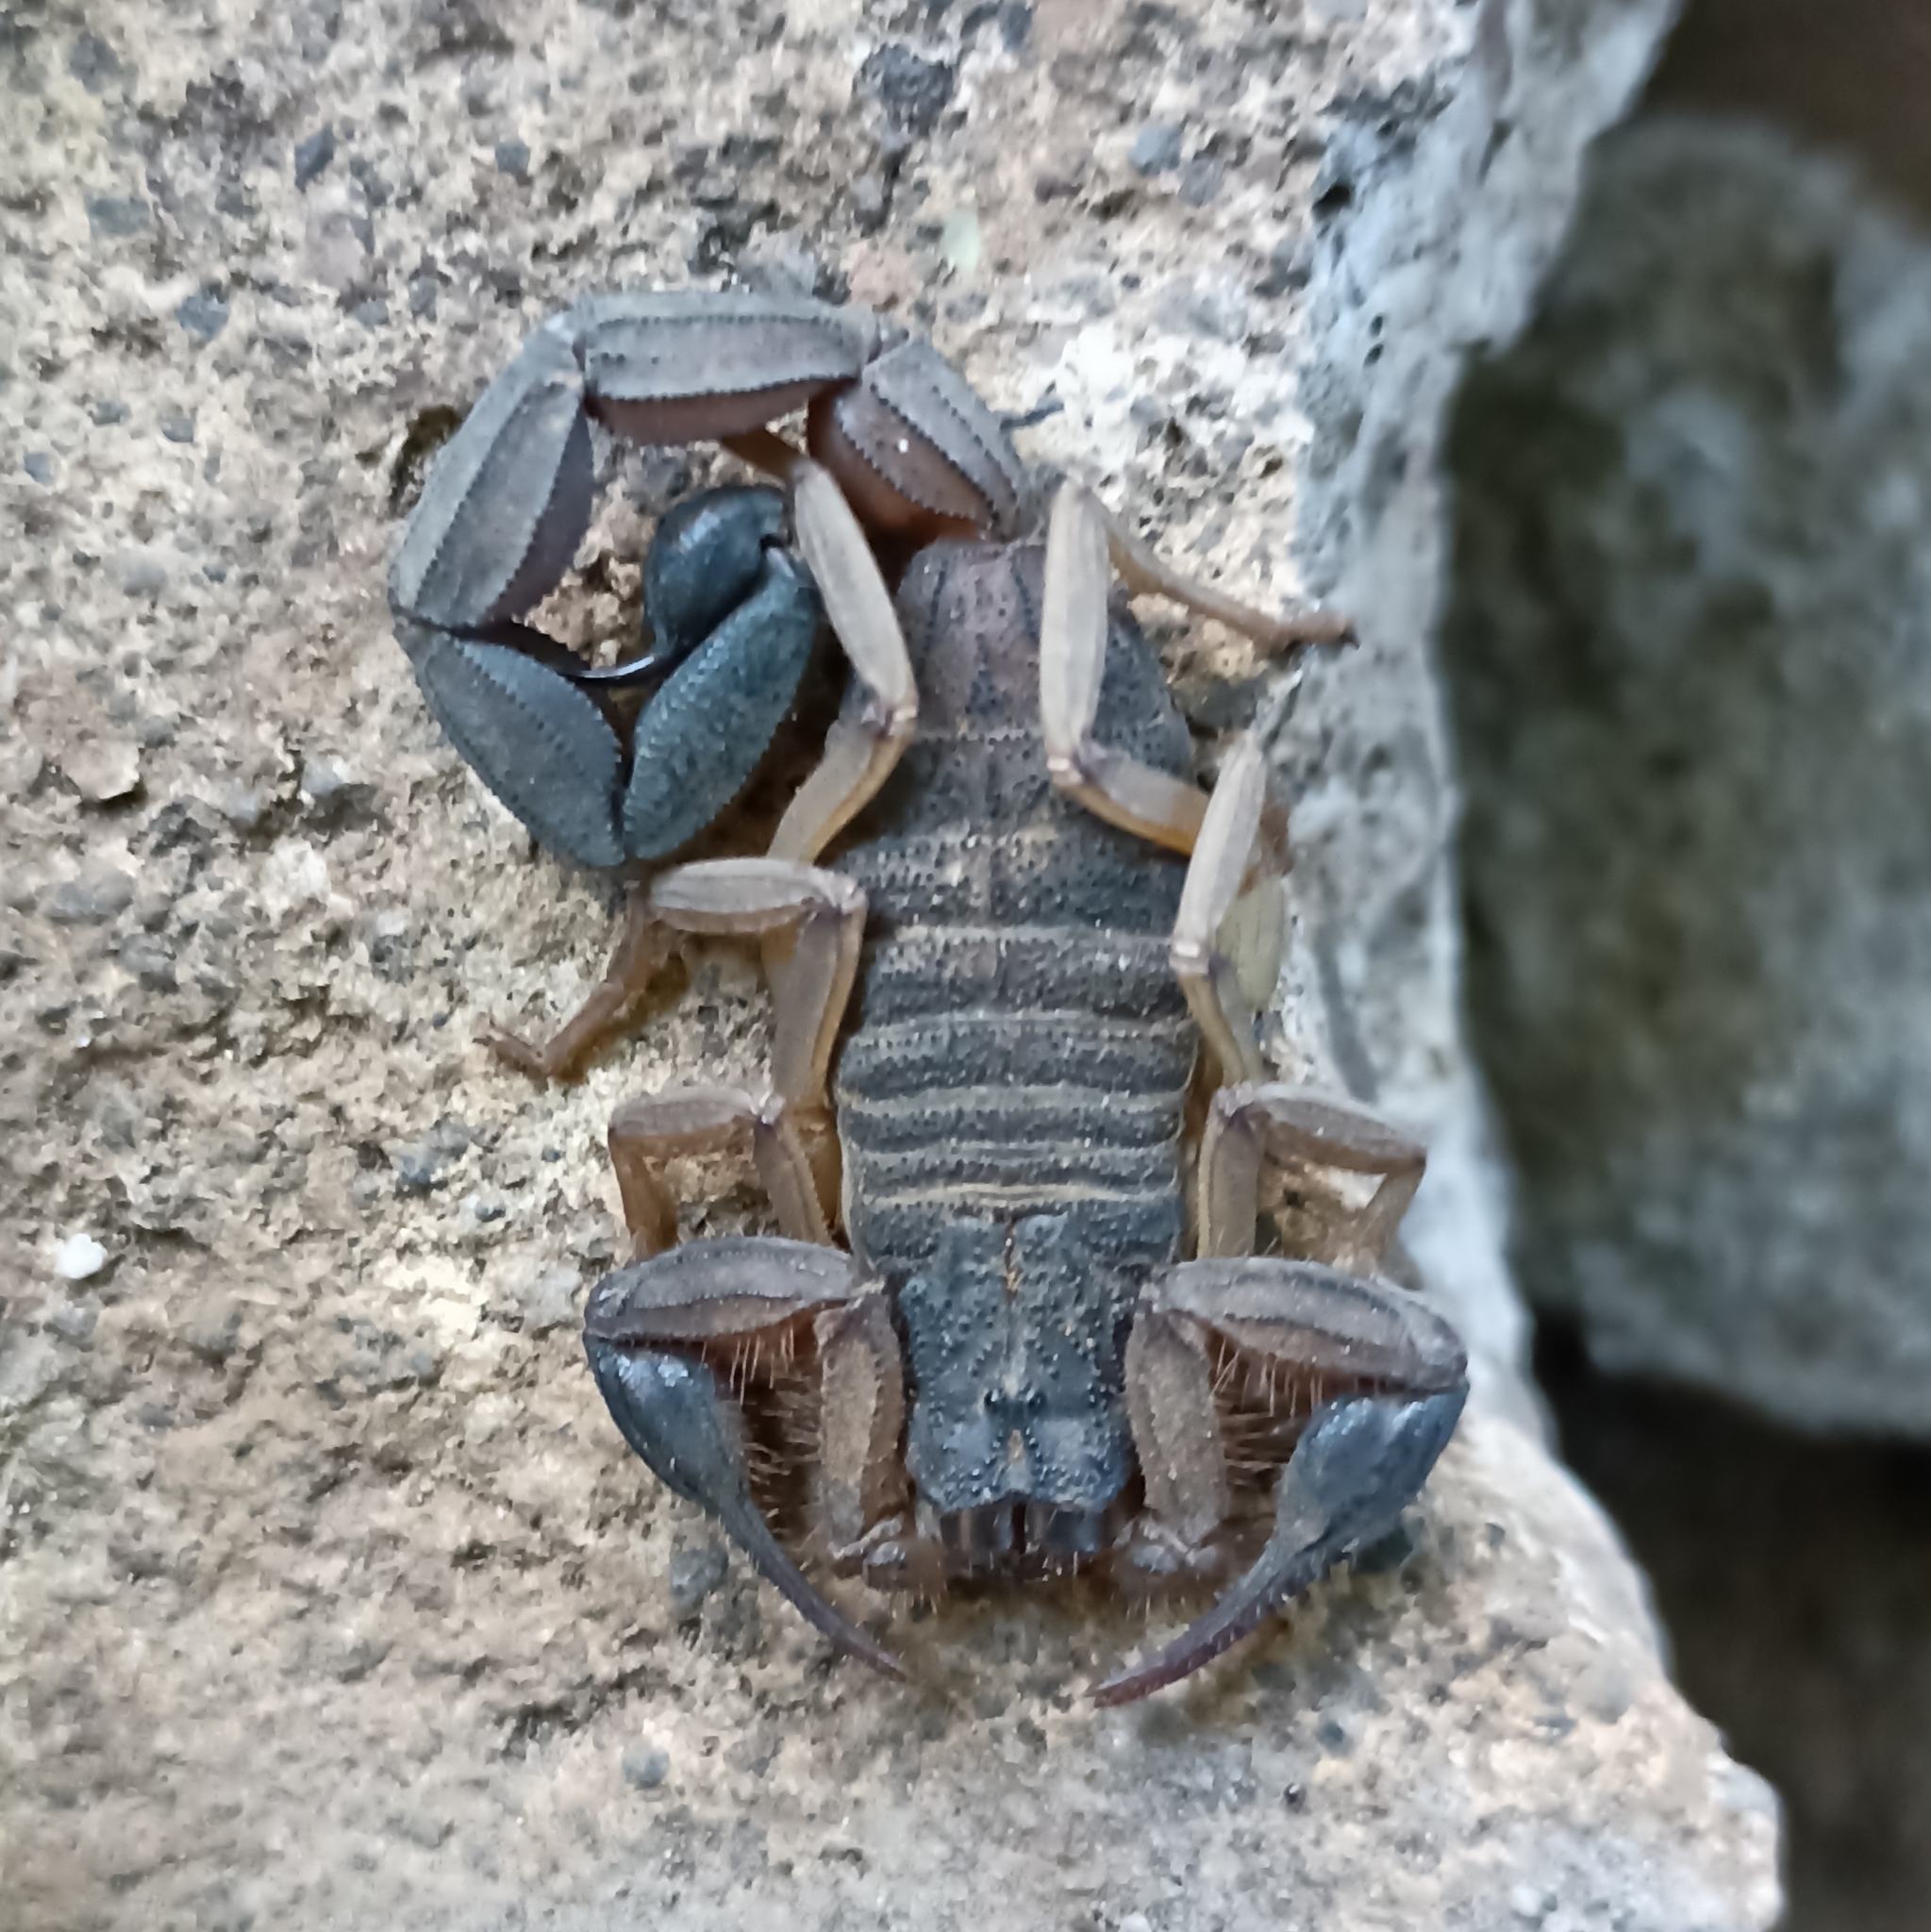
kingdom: Animalia
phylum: Arthropoda
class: Arachnida
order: Scorpiones
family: Buthidae
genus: Centruroides
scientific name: Centruroides edwardsii
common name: Scorpions
